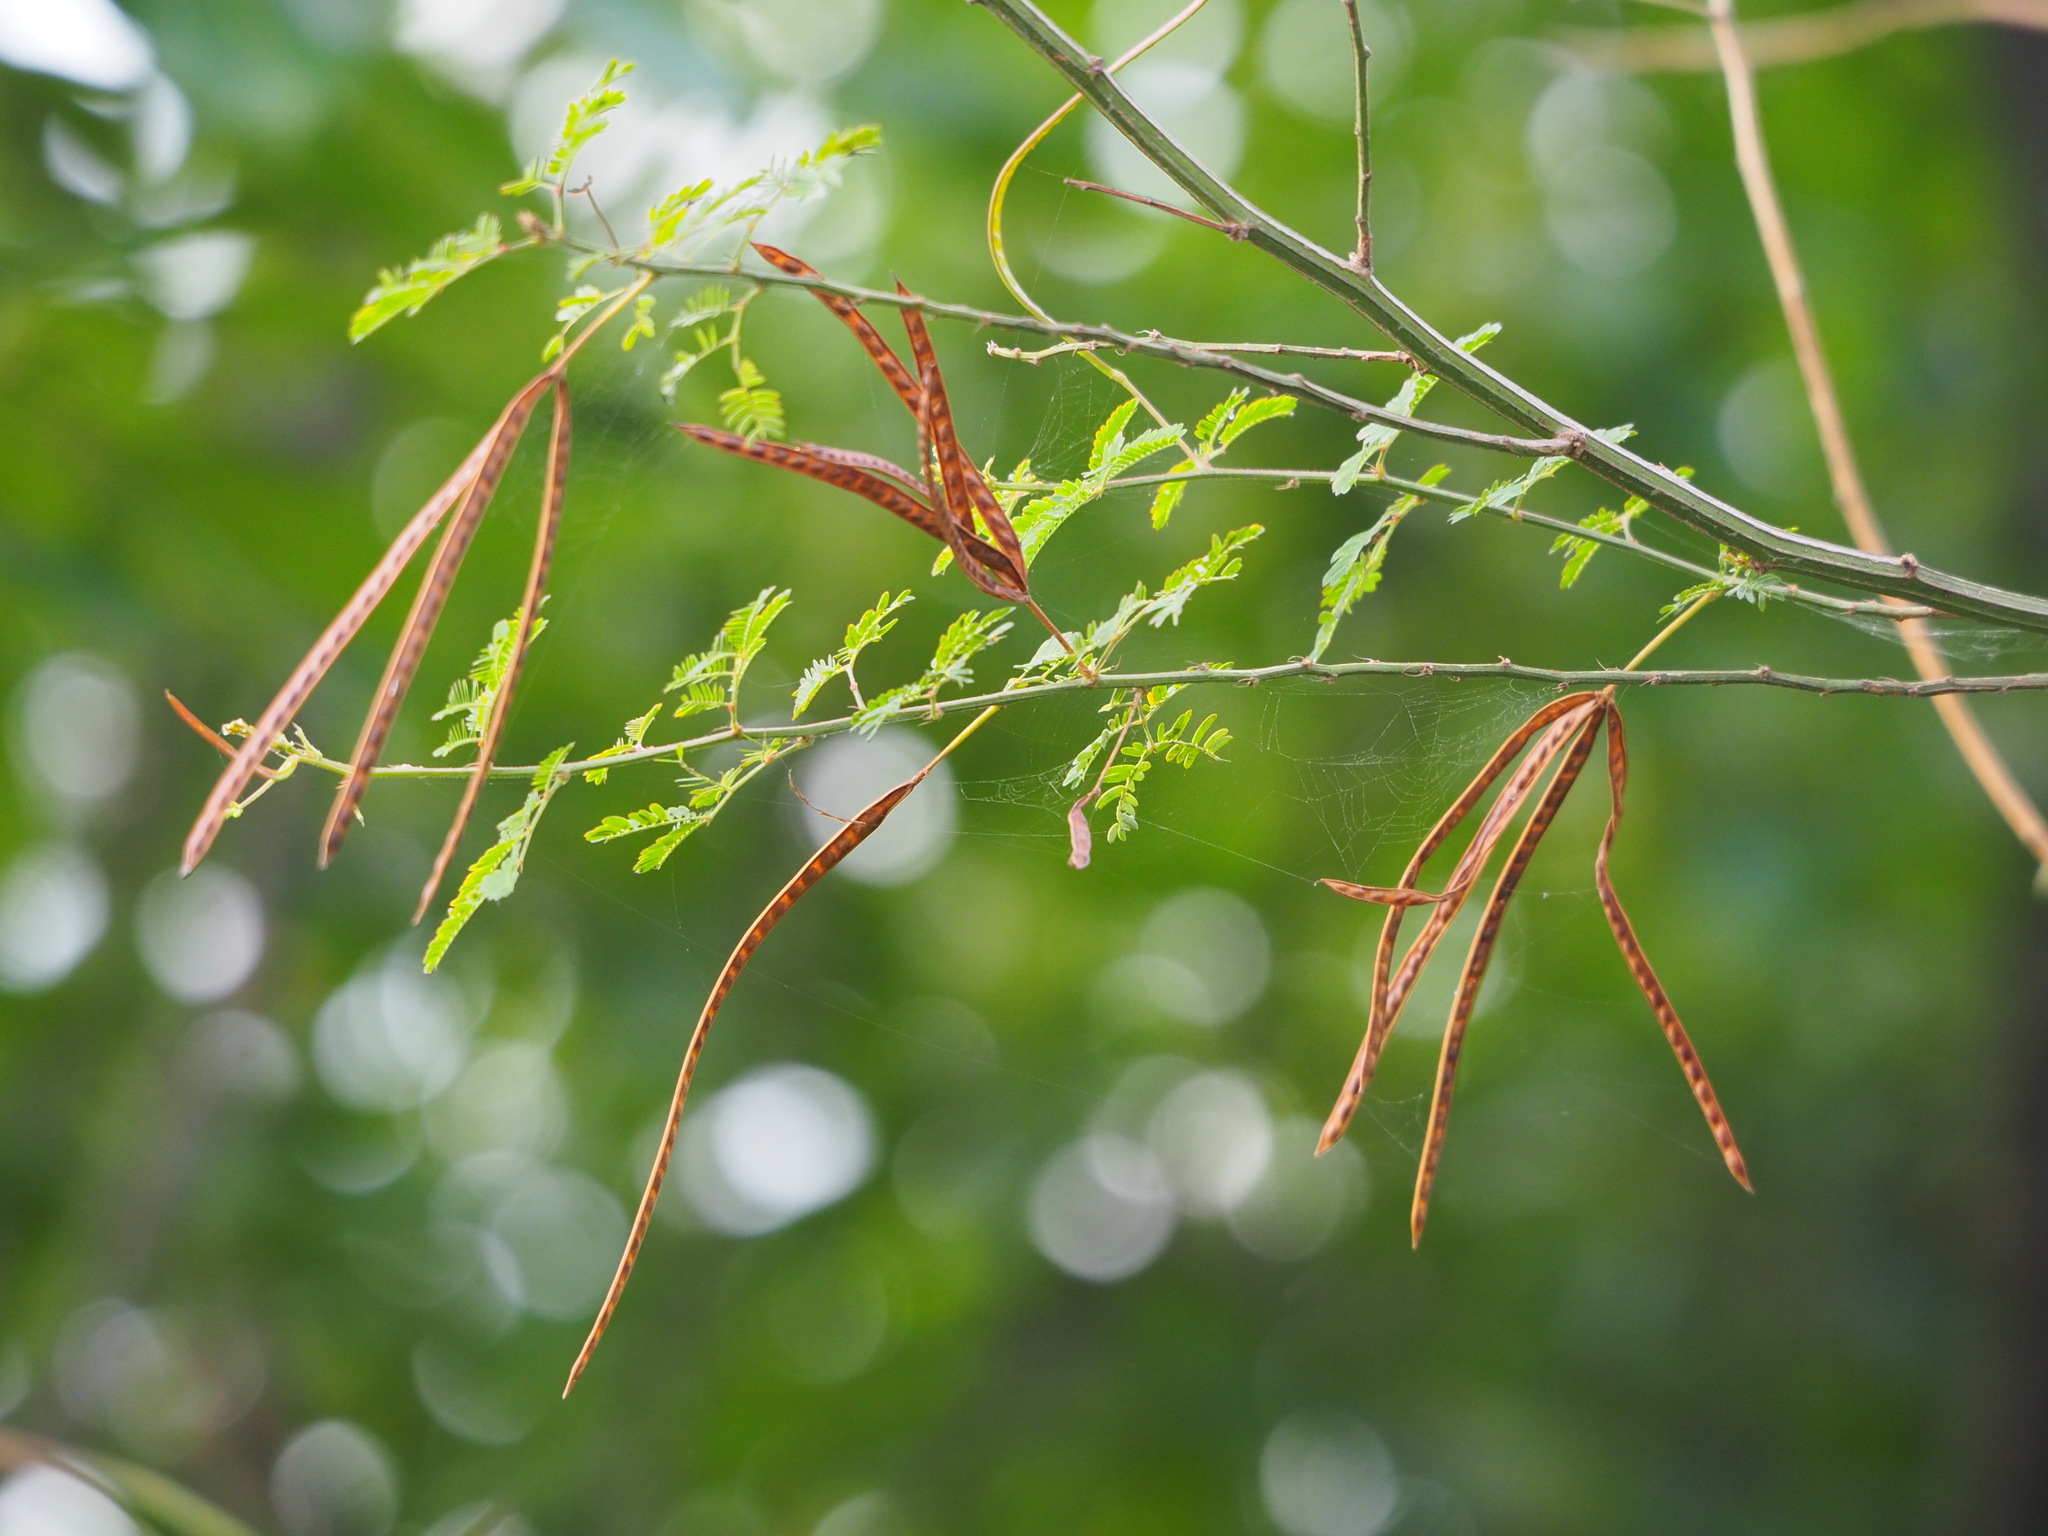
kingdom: Plantae
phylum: Tracheophyta
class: Magnoliopsida
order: Fabales
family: Fabaceae
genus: Desmanthus
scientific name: Desmanthus virgatus
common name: Wild tantan
